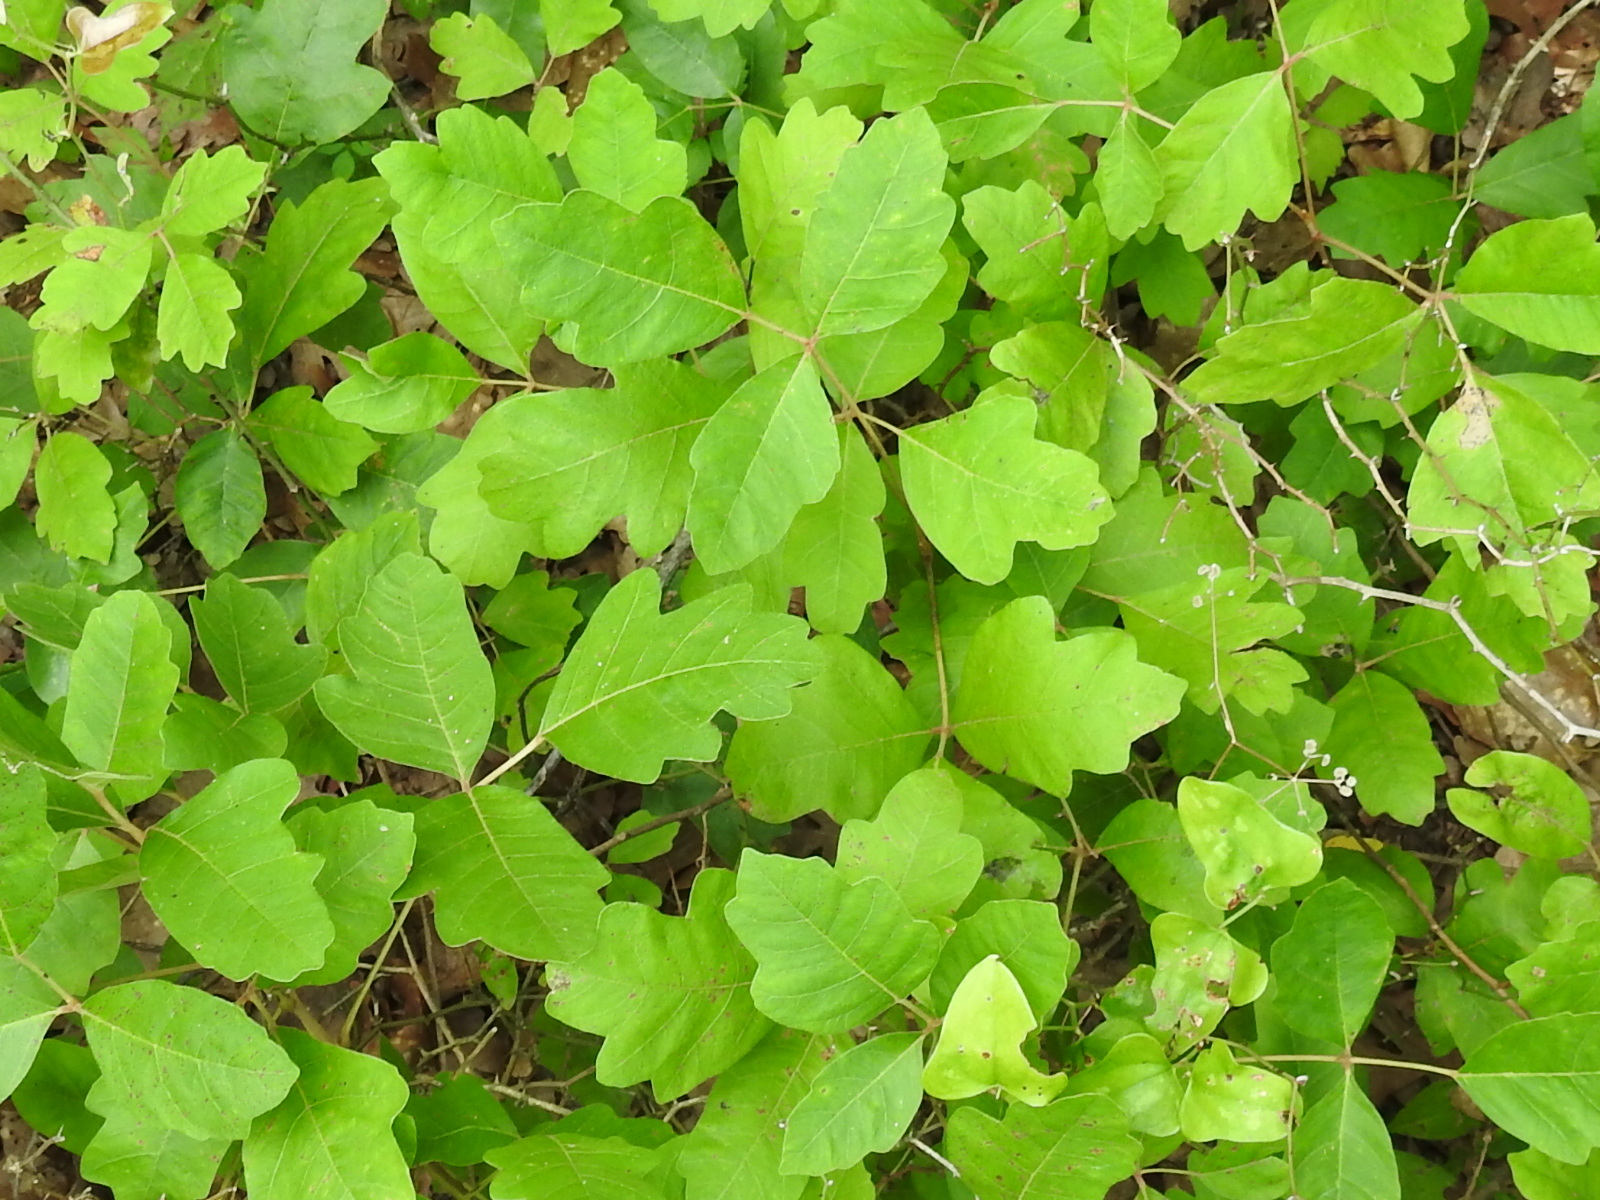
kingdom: Plantae
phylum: Tracheophyta
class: Magnoliopsida
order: Sapindales
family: Anacardiaceae
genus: Toxicodendron
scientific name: Toxicodendron pubescens
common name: Eastern poison-oak
